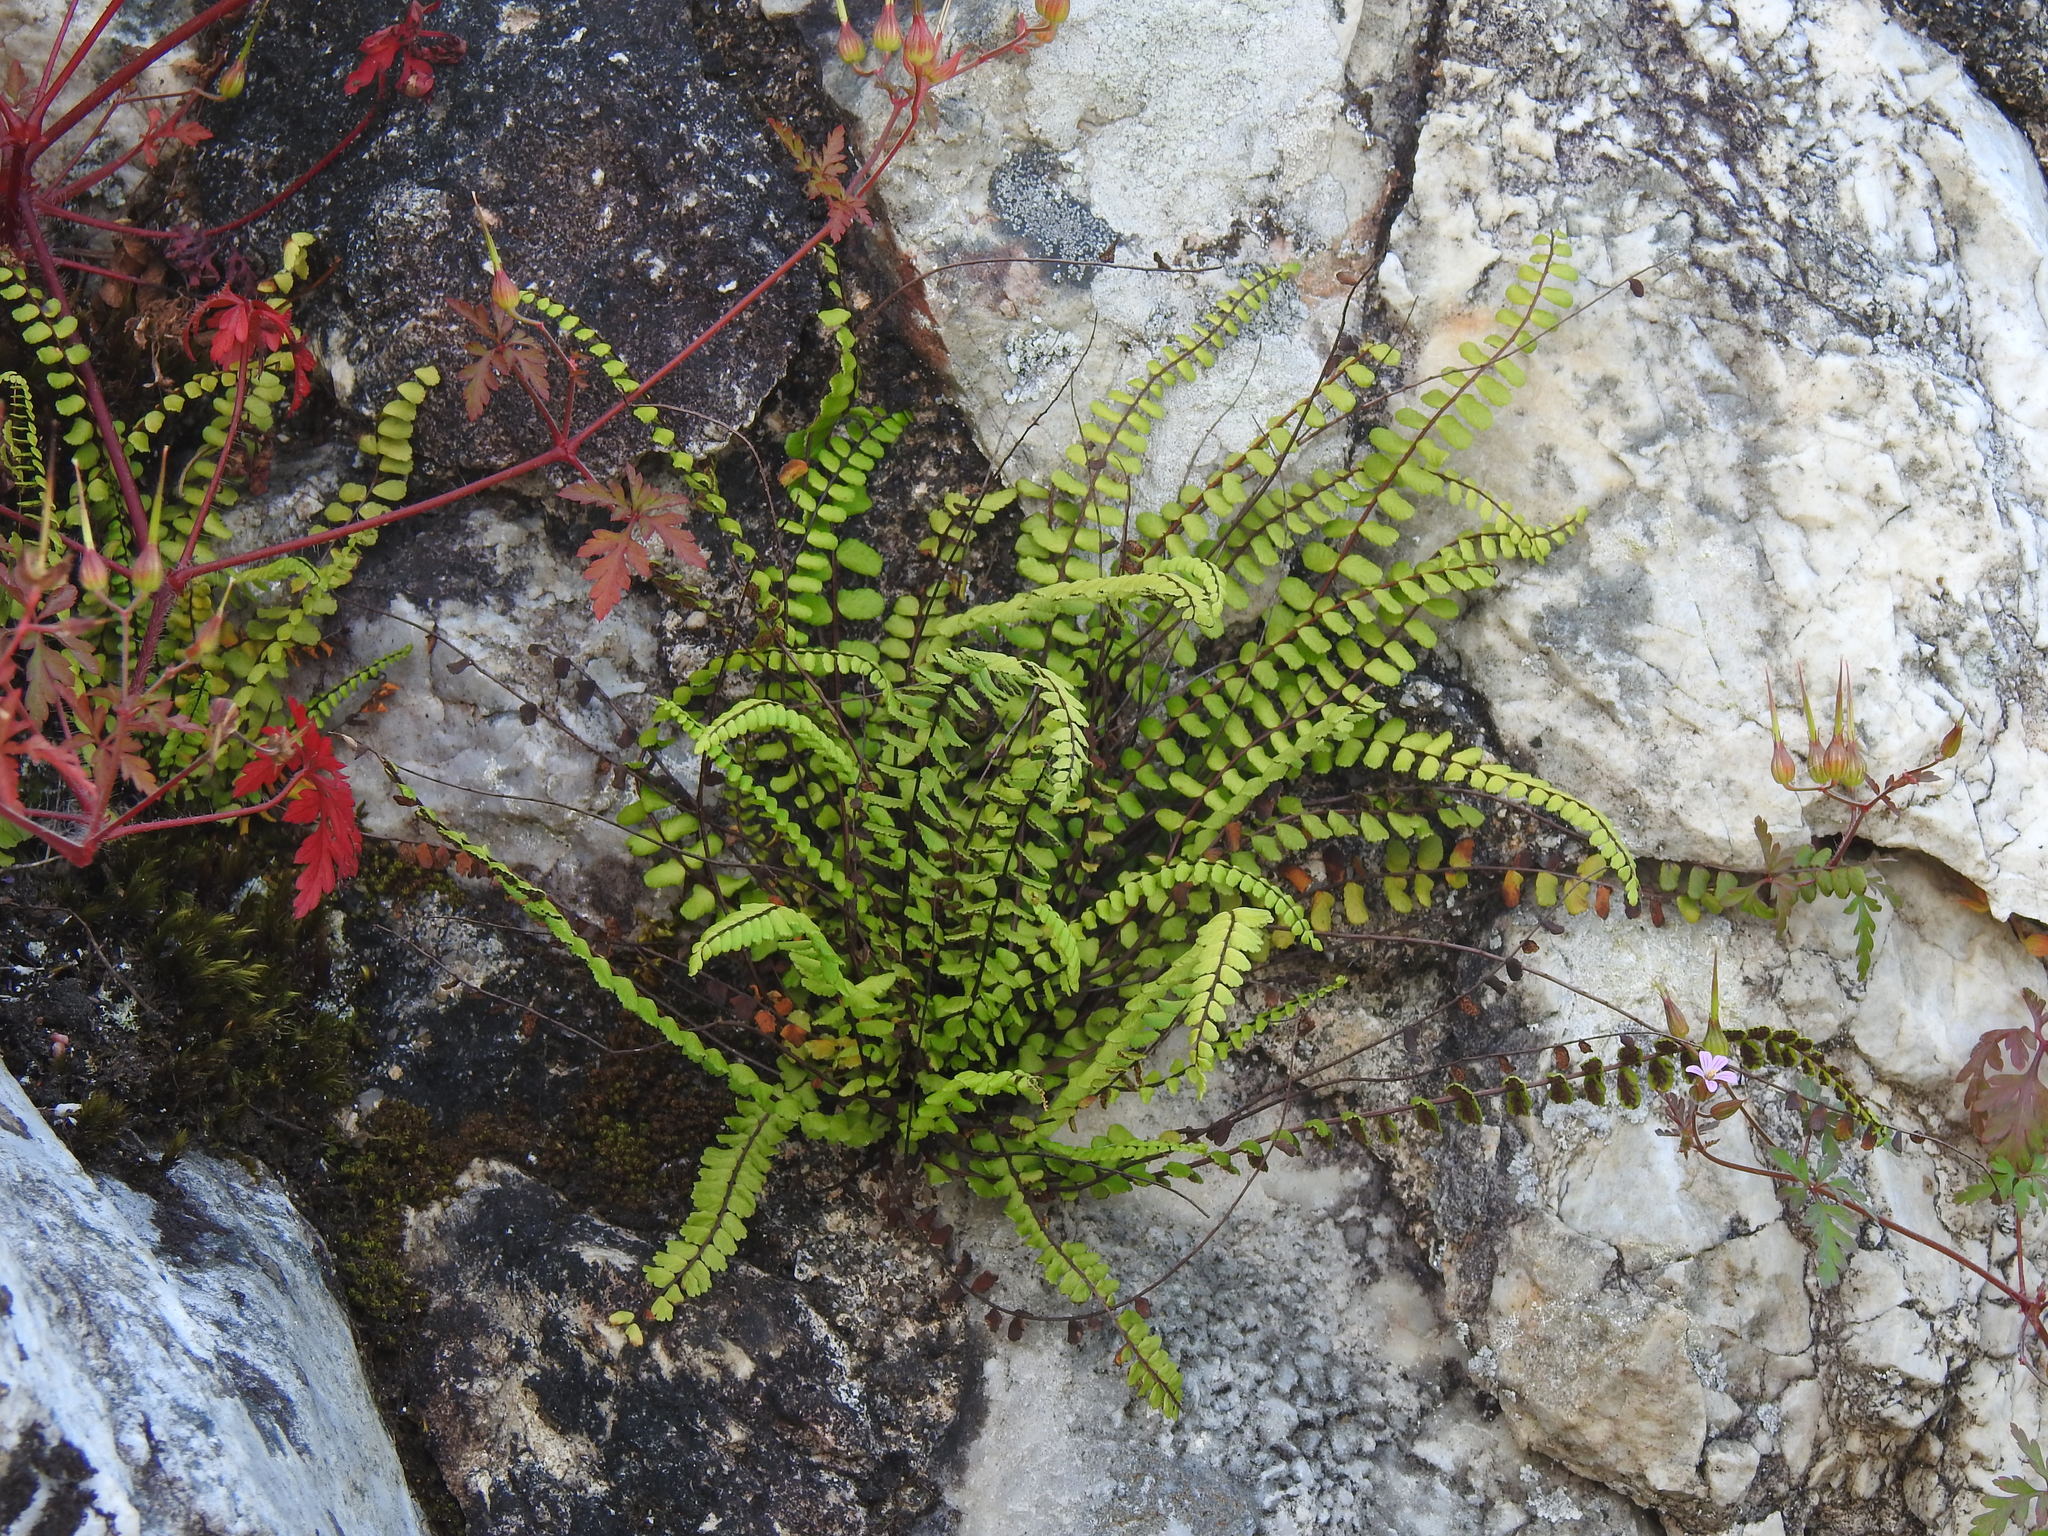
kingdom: Plantae
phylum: Tracheophyta
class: Polypodiopsida
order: Polypodiales
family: Aspleniaceae
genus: Asplenium
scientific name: Asplenium trichomanes
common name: Maidenhair spleenwort
